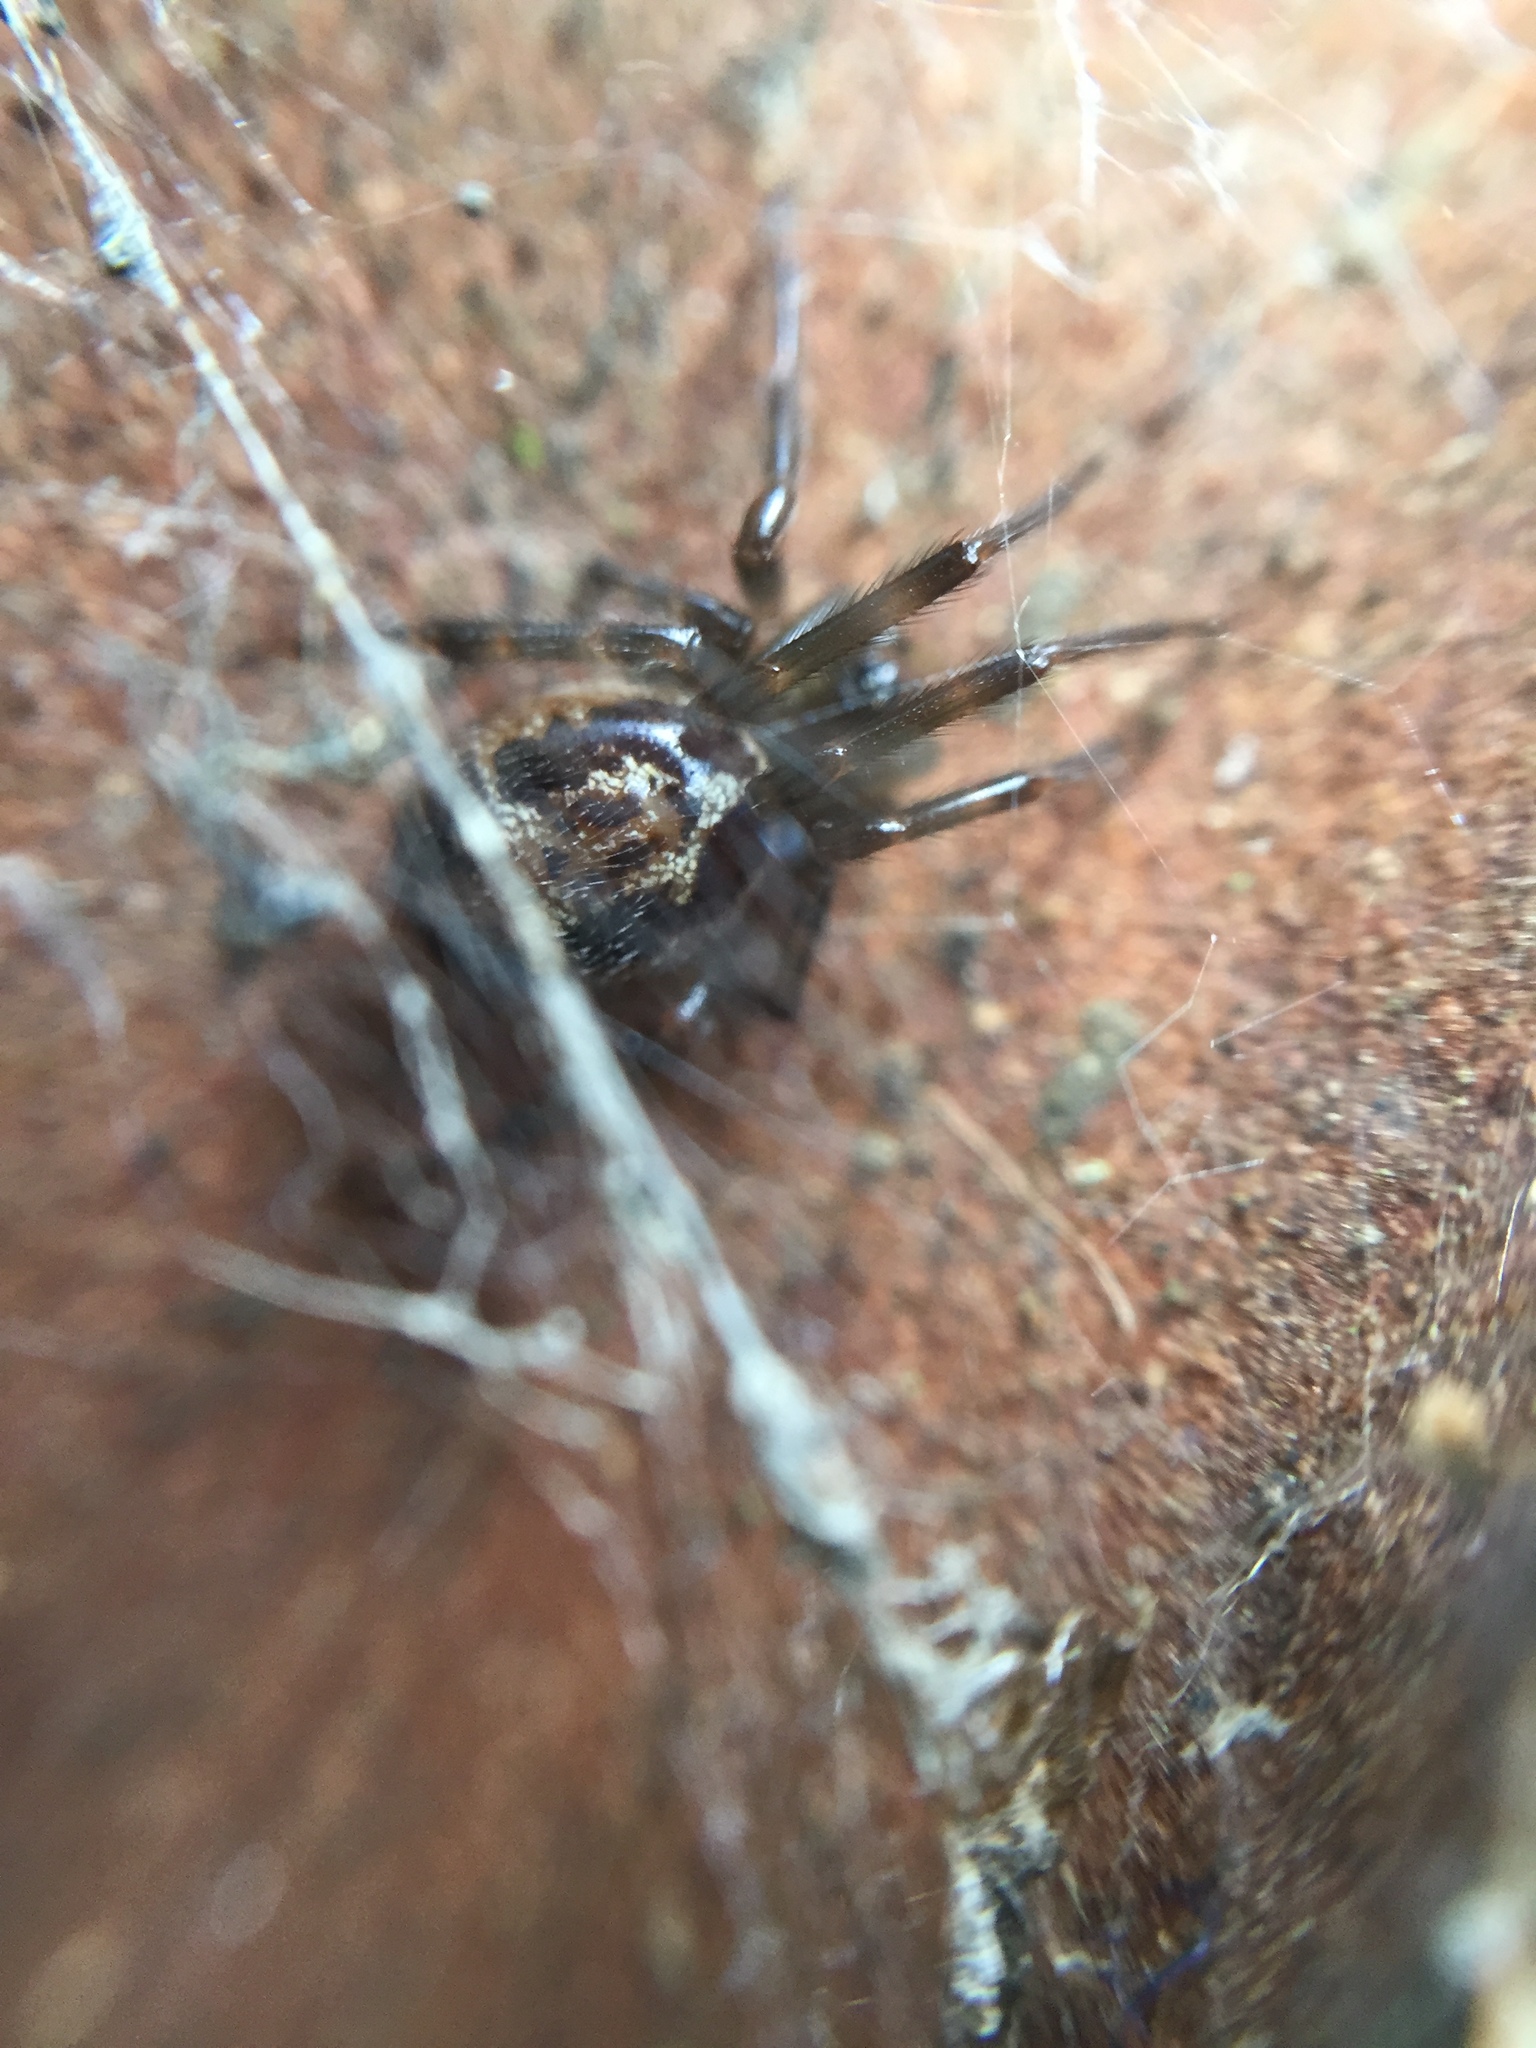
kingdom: Animalia
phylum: Arthropoda
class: Arachnida
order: Araneae
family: Theridiidae
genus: Steatoda
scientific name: Steatoda nobilis
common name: Cobweb weaver
